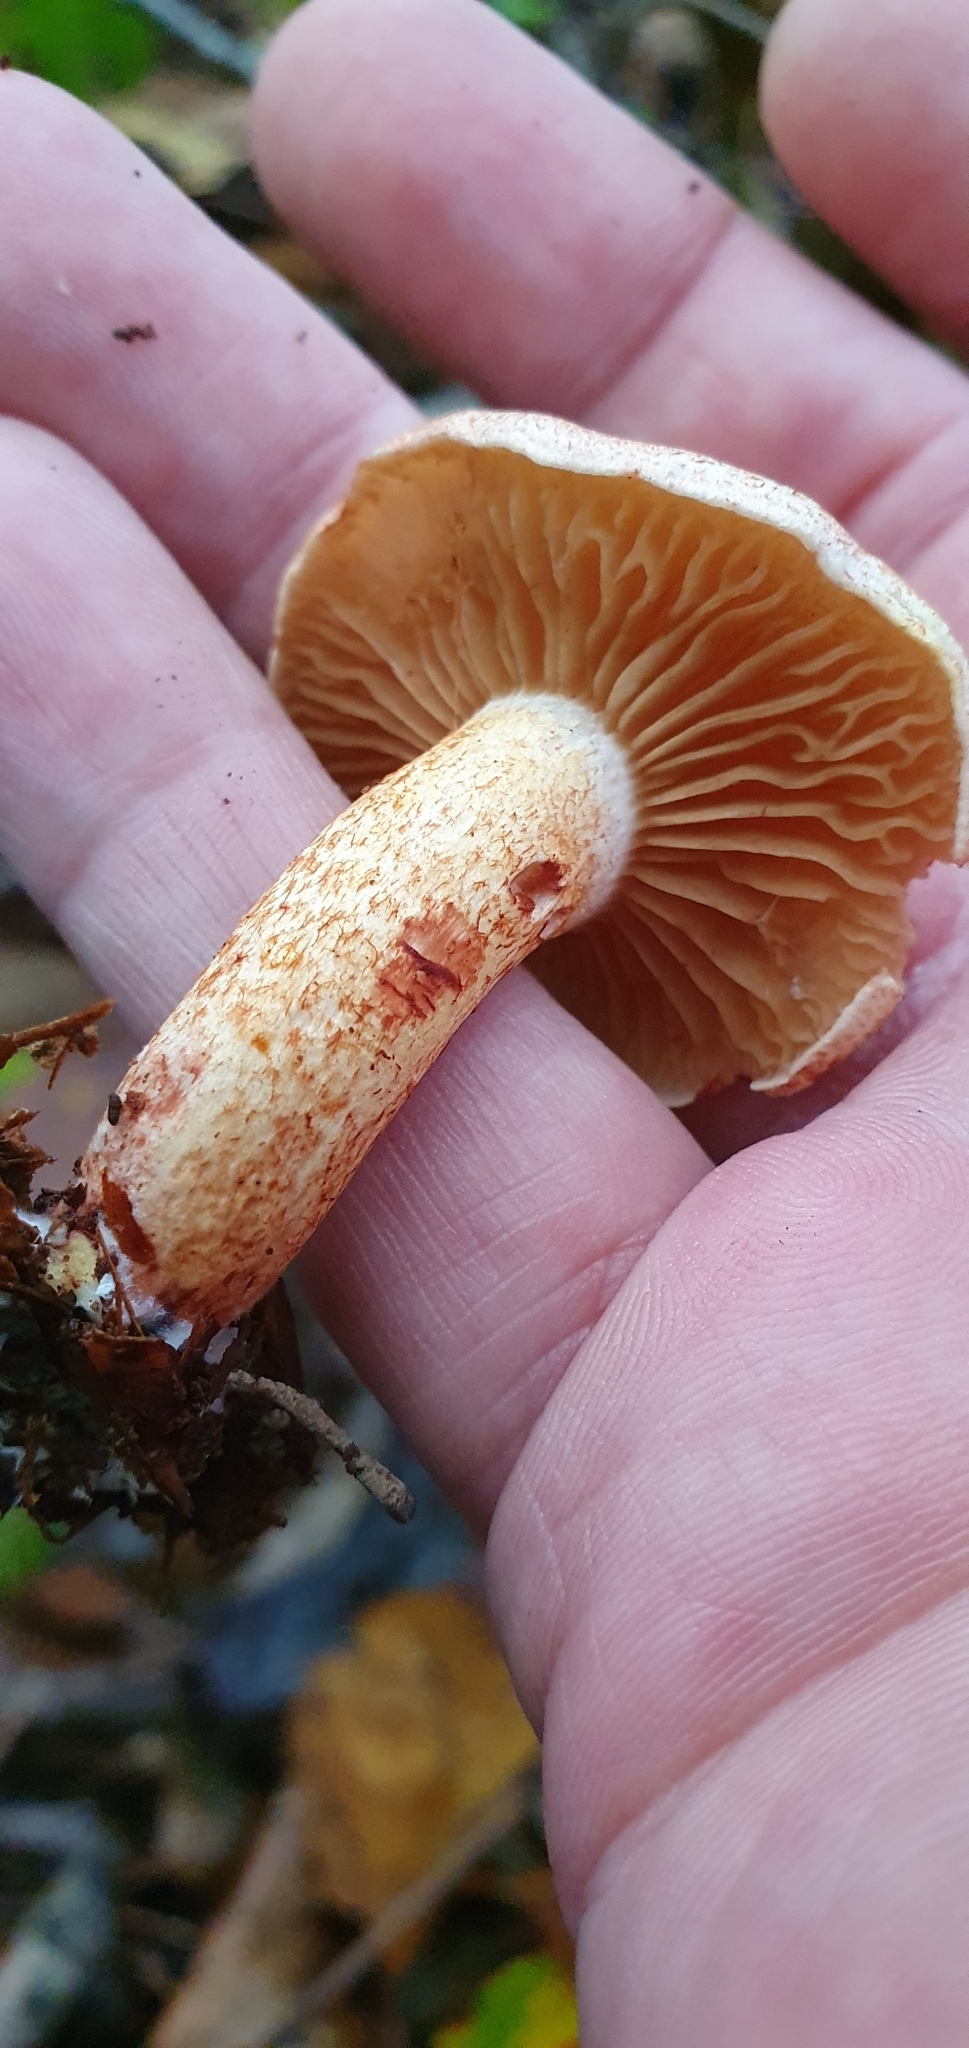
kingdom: Fungi
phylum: Basidiomycota
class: Agaricomycetes
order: Agaricales
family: Cortinariaceae
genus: Cortinarius
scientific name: Cortinarius bolaris
